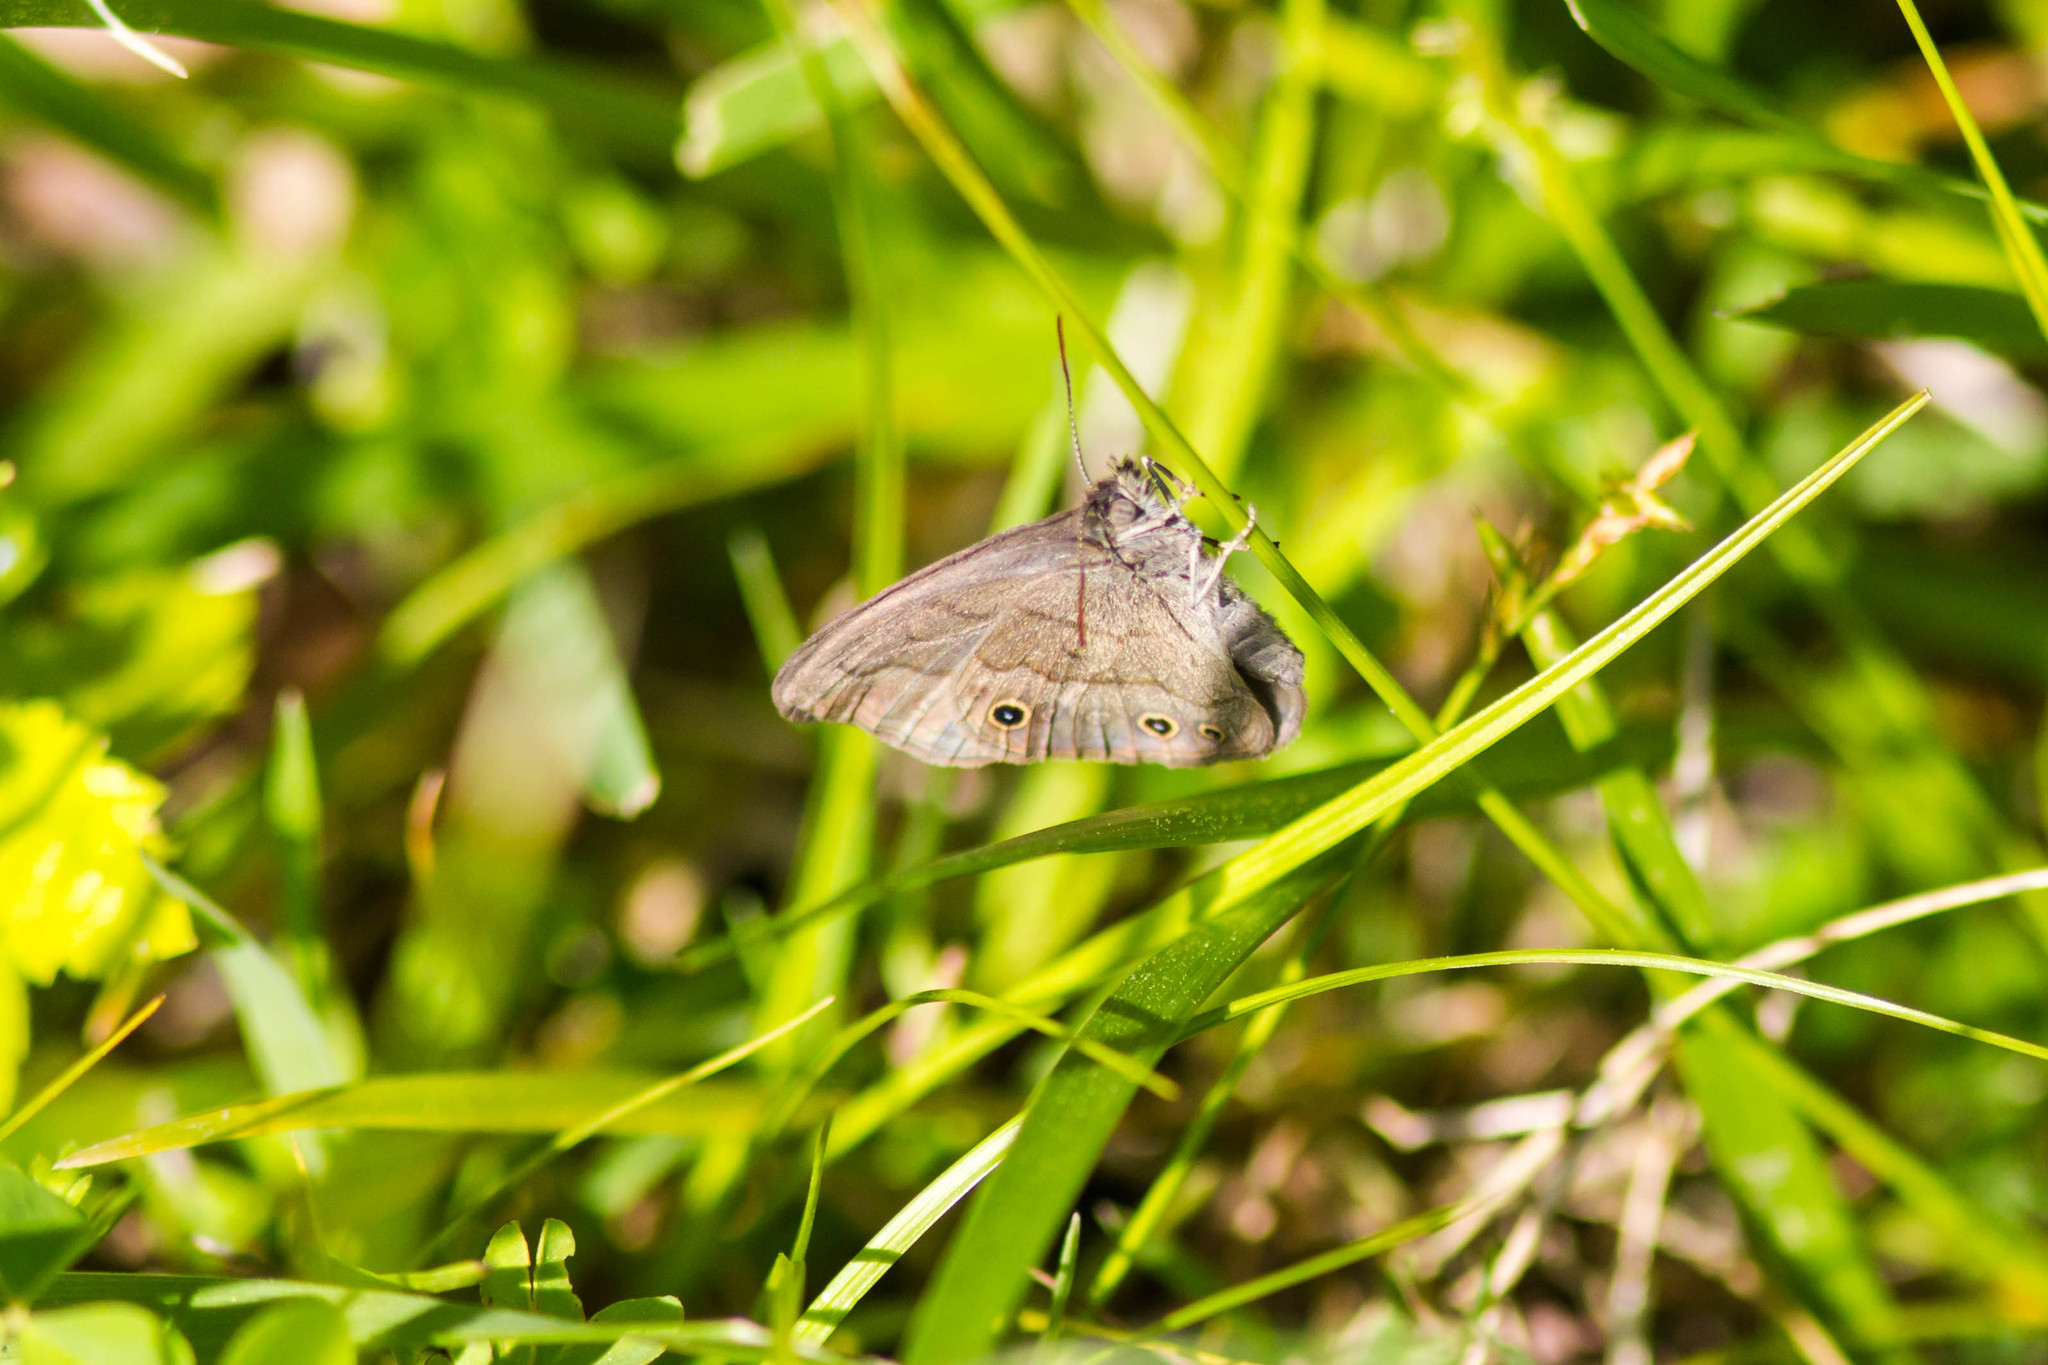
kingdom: Animalia
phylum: Arthropoda
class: Insecta
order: Lepidoptera
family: Nymphalidae
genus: Hermeuptychia
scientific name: Hermeuptychia hermes
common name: Hermes satyr
